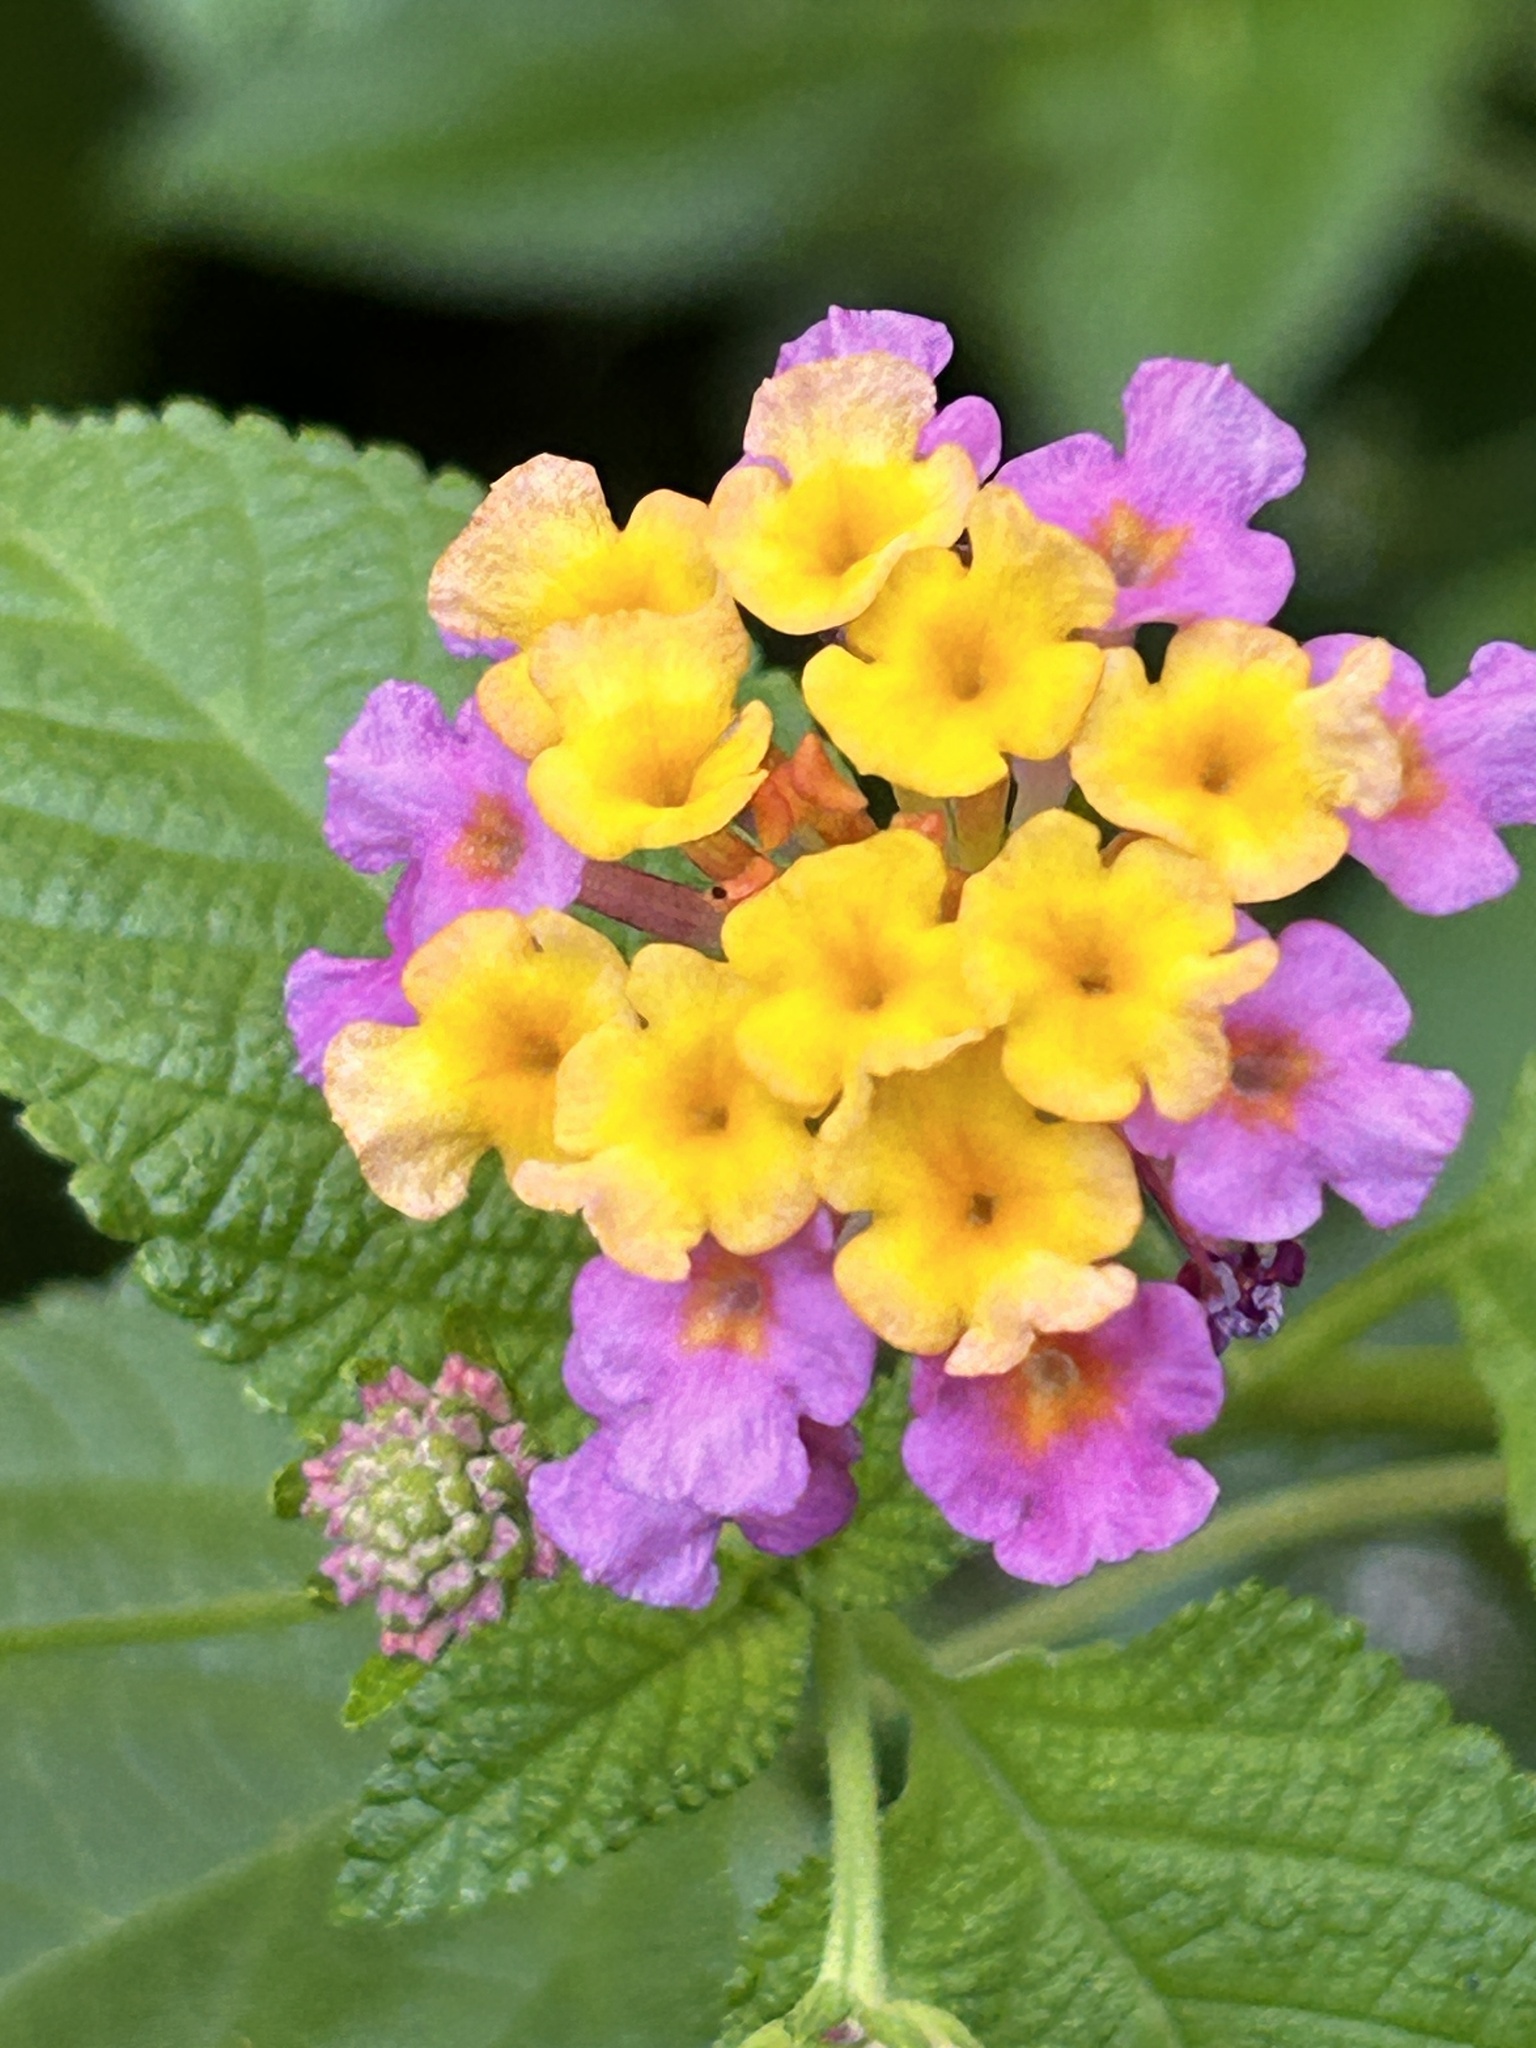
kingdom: Plantae
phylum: Tracheophyta
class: Magnoliopsida
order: Lamiales
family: Verbenaceae
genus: Lantana
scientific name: Lantana camara
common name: Lantana
